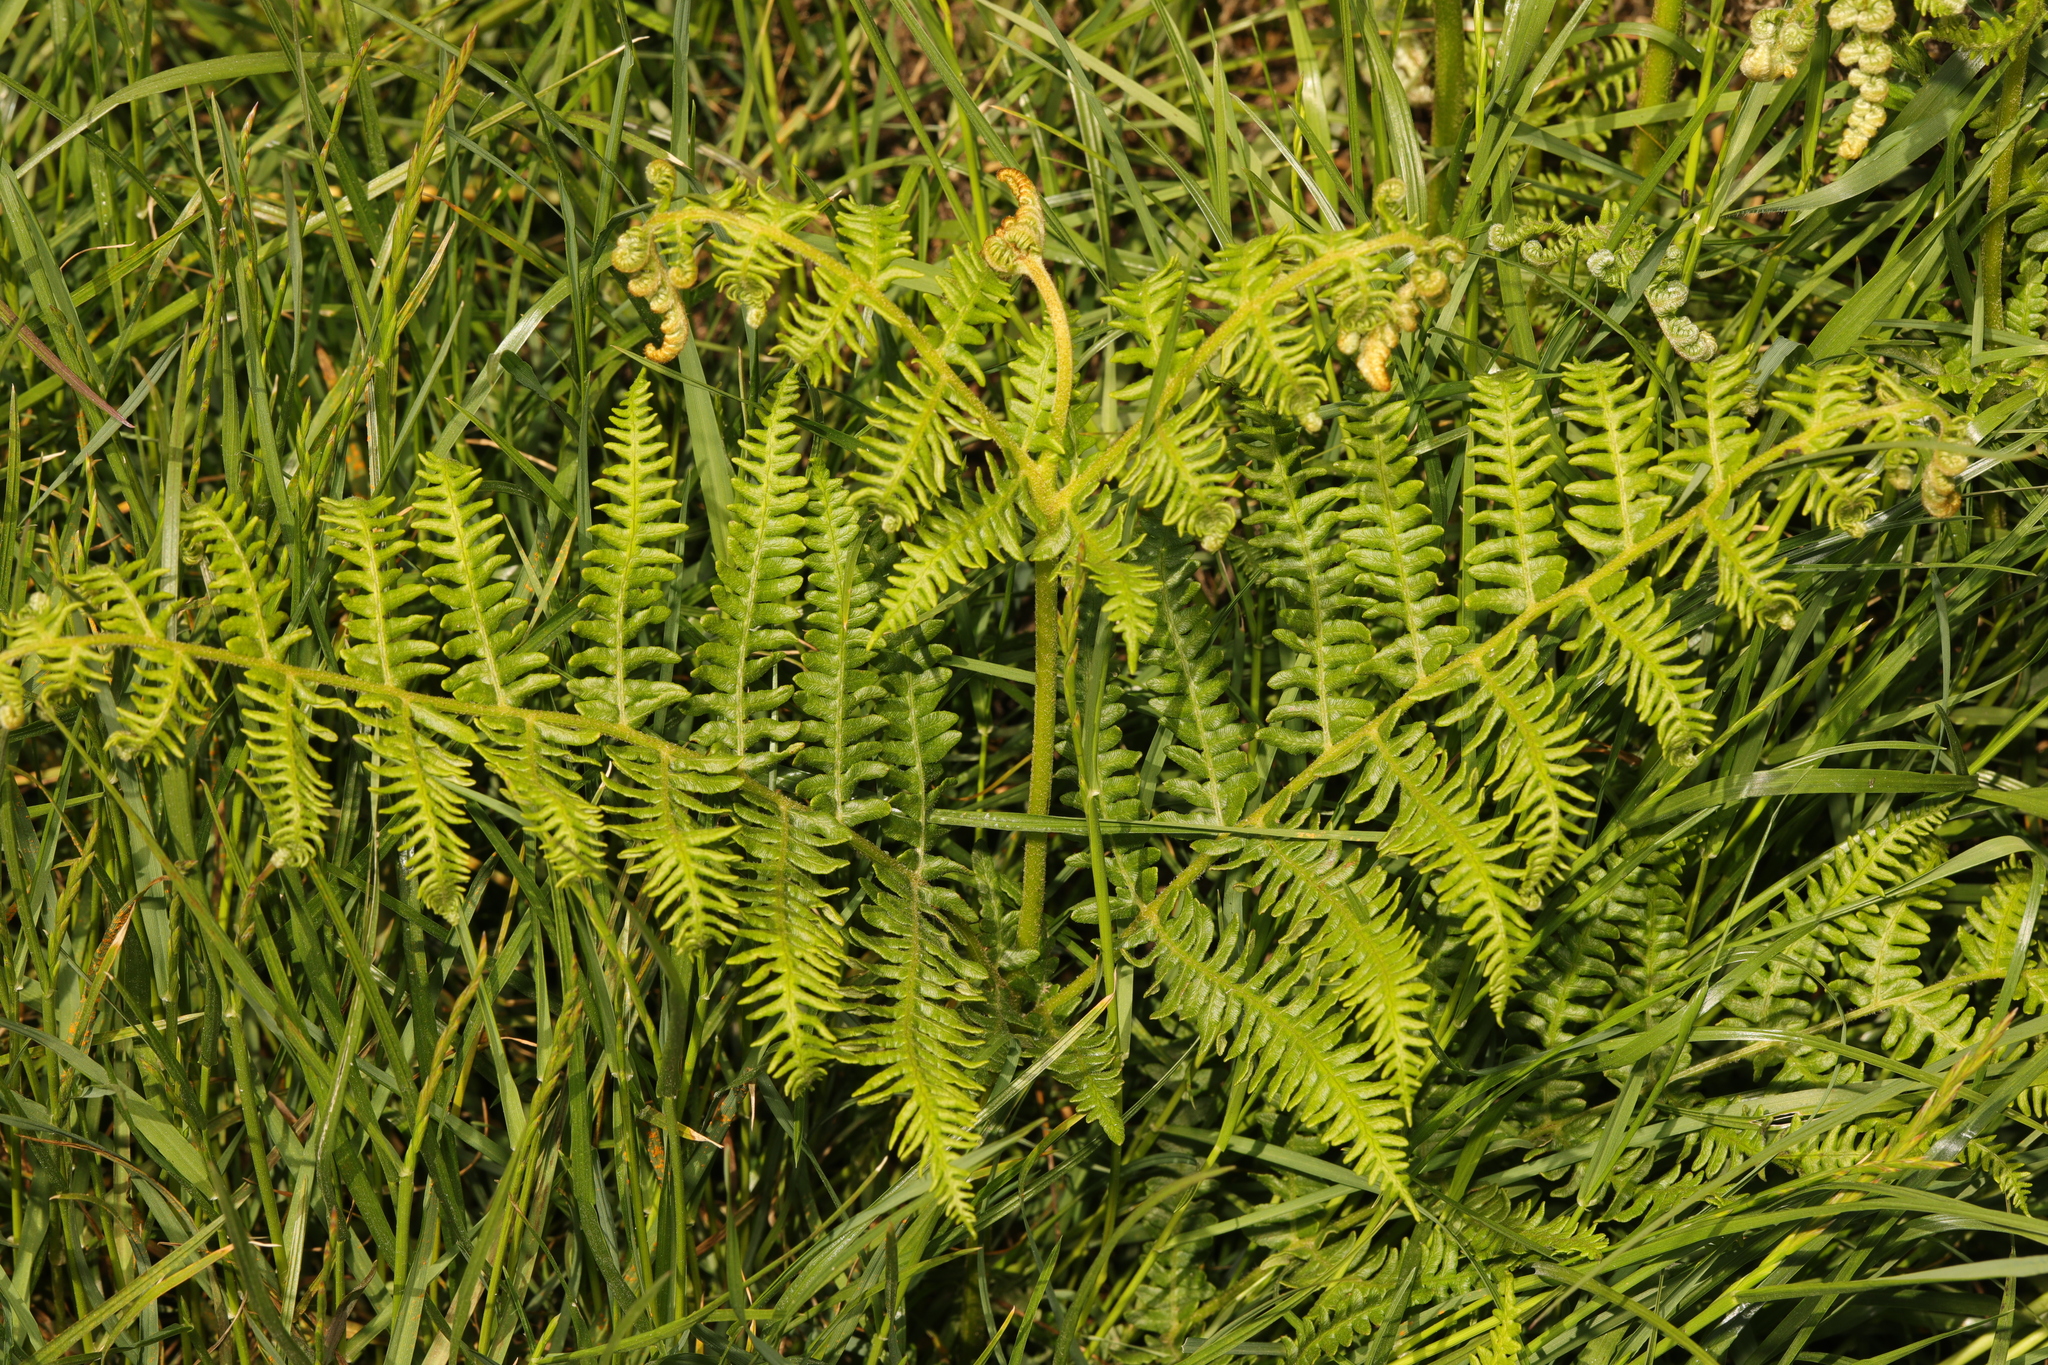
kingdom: Plantae
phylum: Tracheophyta
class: Polypodiopsida
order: Polypodiales
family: Dennstaedtiaceae
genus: Pteridium
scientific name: Pteridium aquilinum
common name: Bracken
